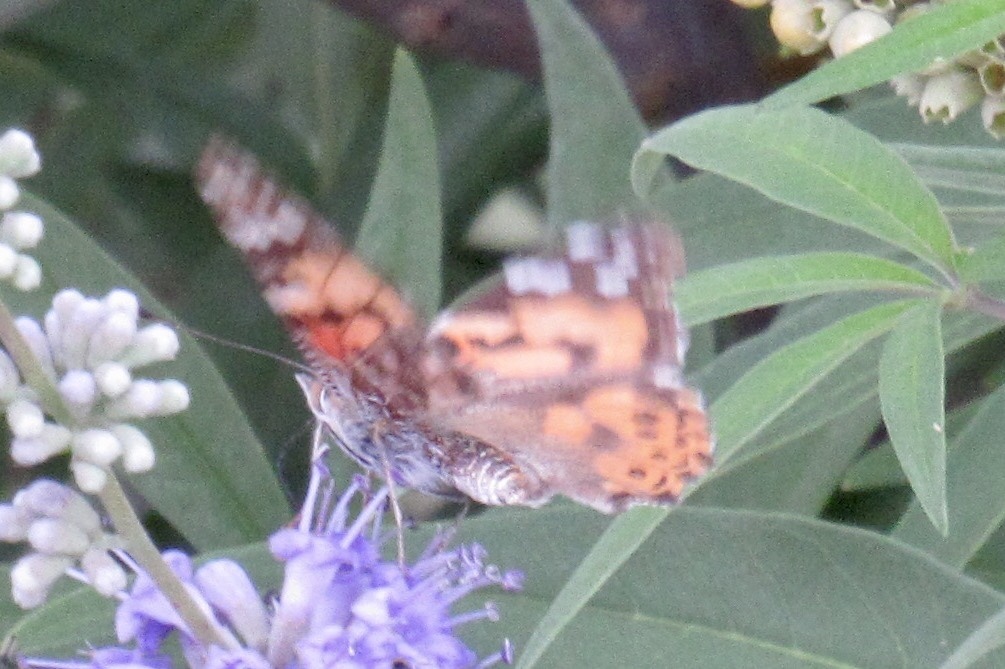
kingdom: Animalia
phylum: Arthropoda
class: Insecta
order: Lepidoptera
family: Nymphalidae
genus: Vanessa
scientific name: Vanessa cardui
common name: Painted lady
